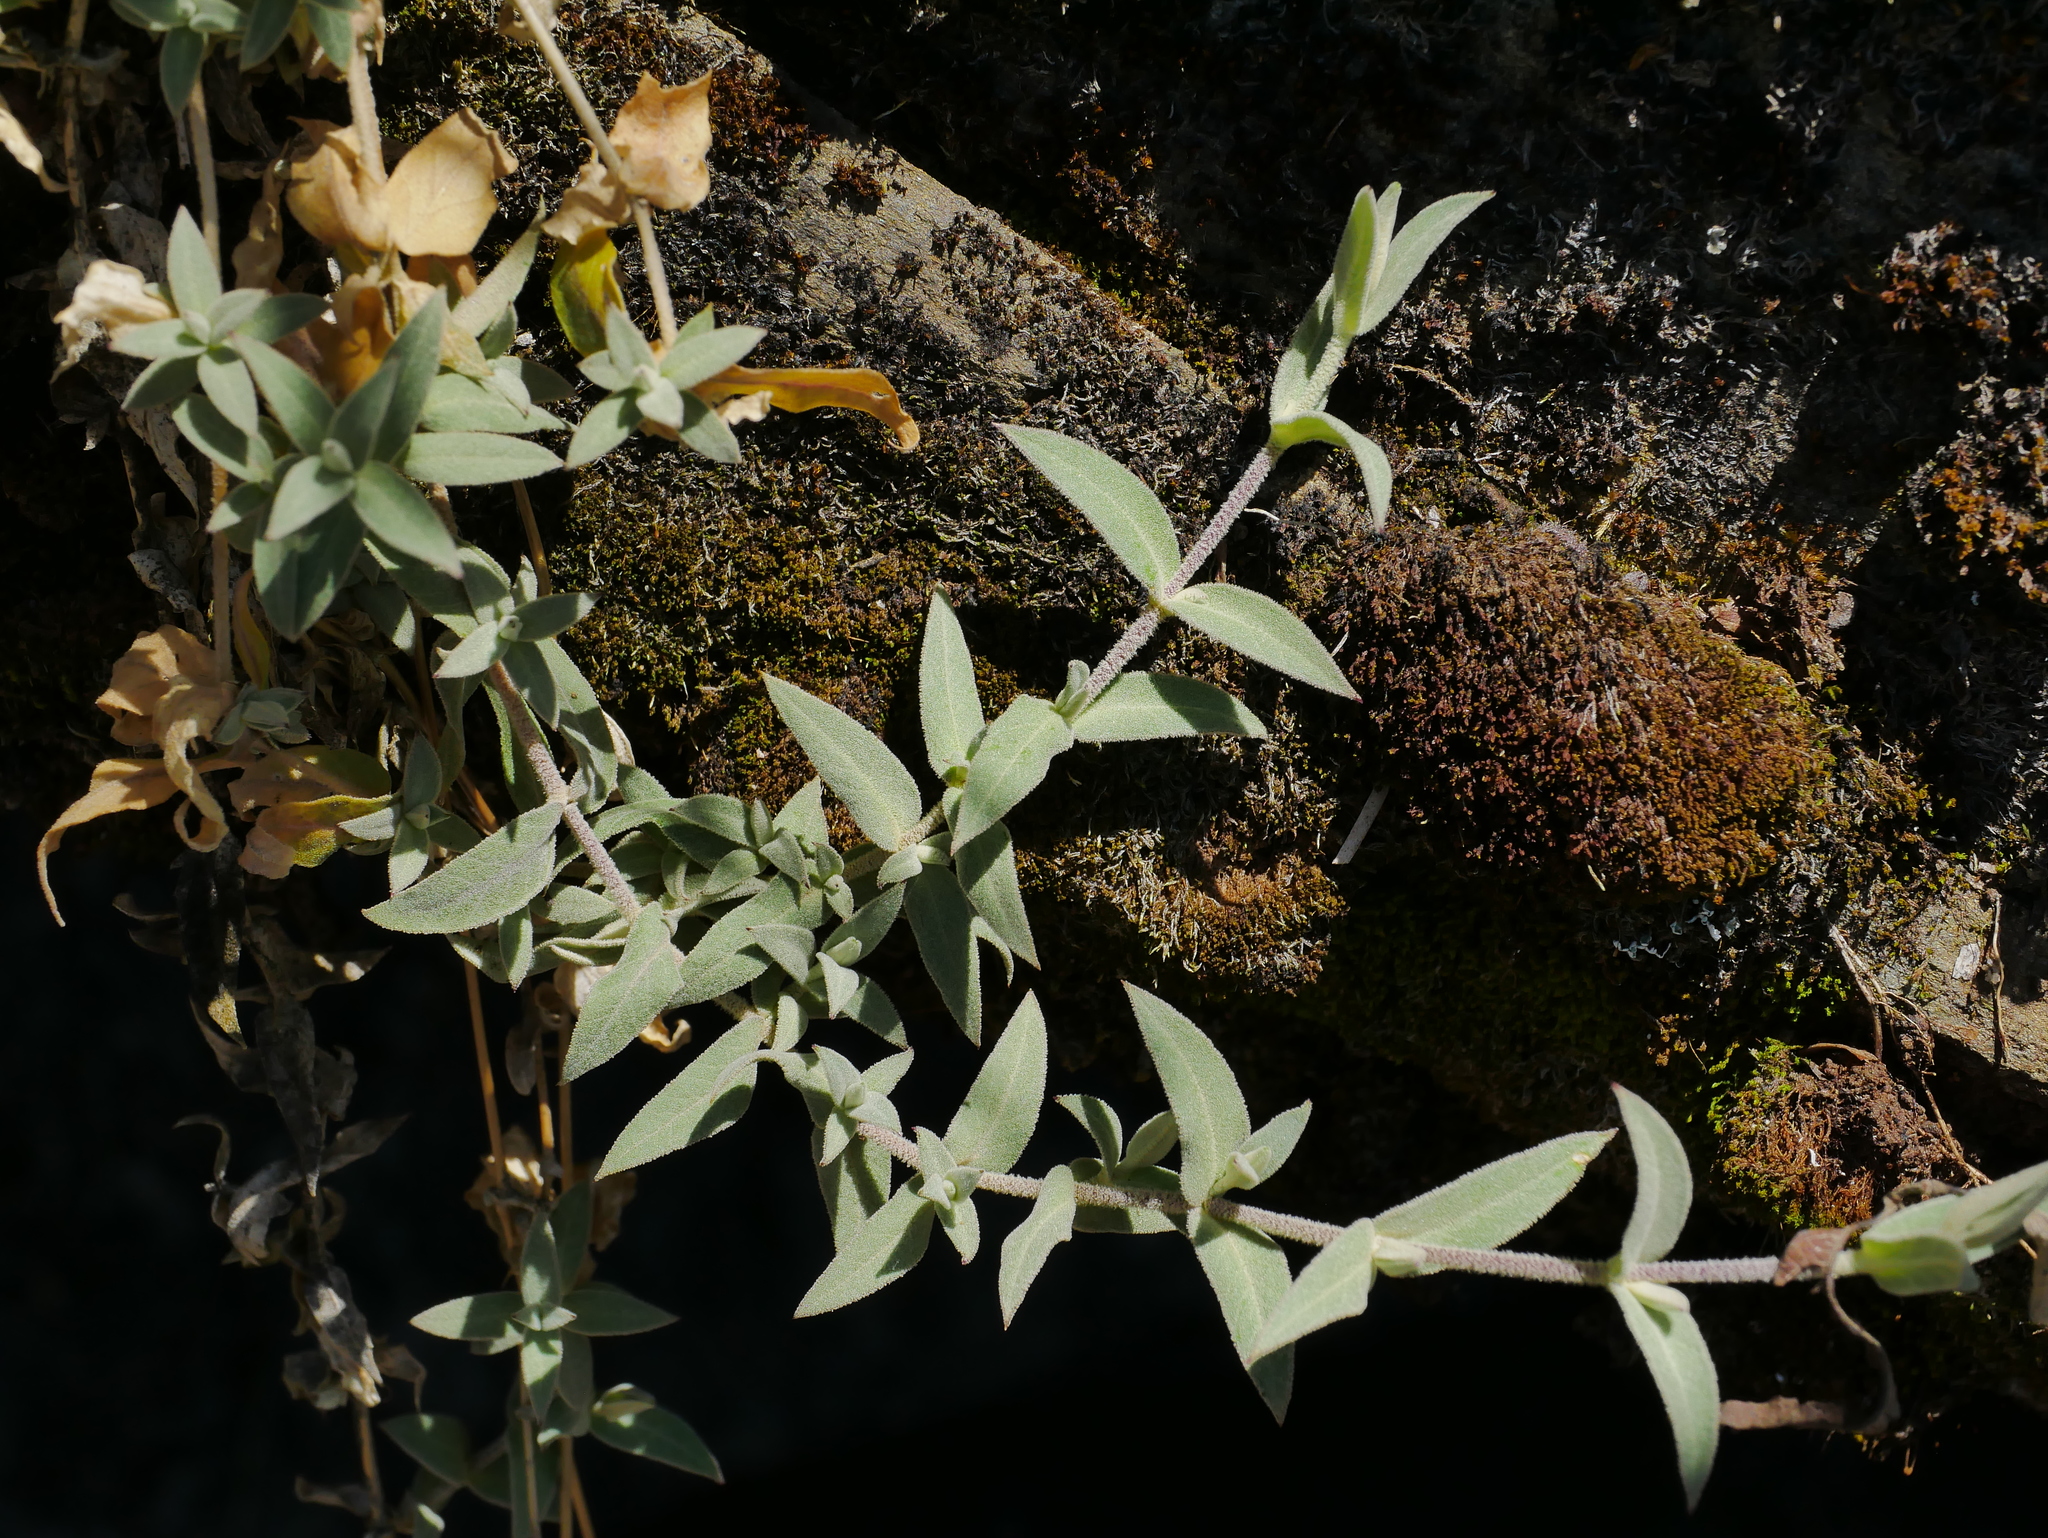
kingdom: Plantae
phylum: Tracheophyta
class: Magnoliopsida
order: Caryophyllales
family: Caryophyllaceae
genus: Stellaria
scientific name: Stellaria vestita
